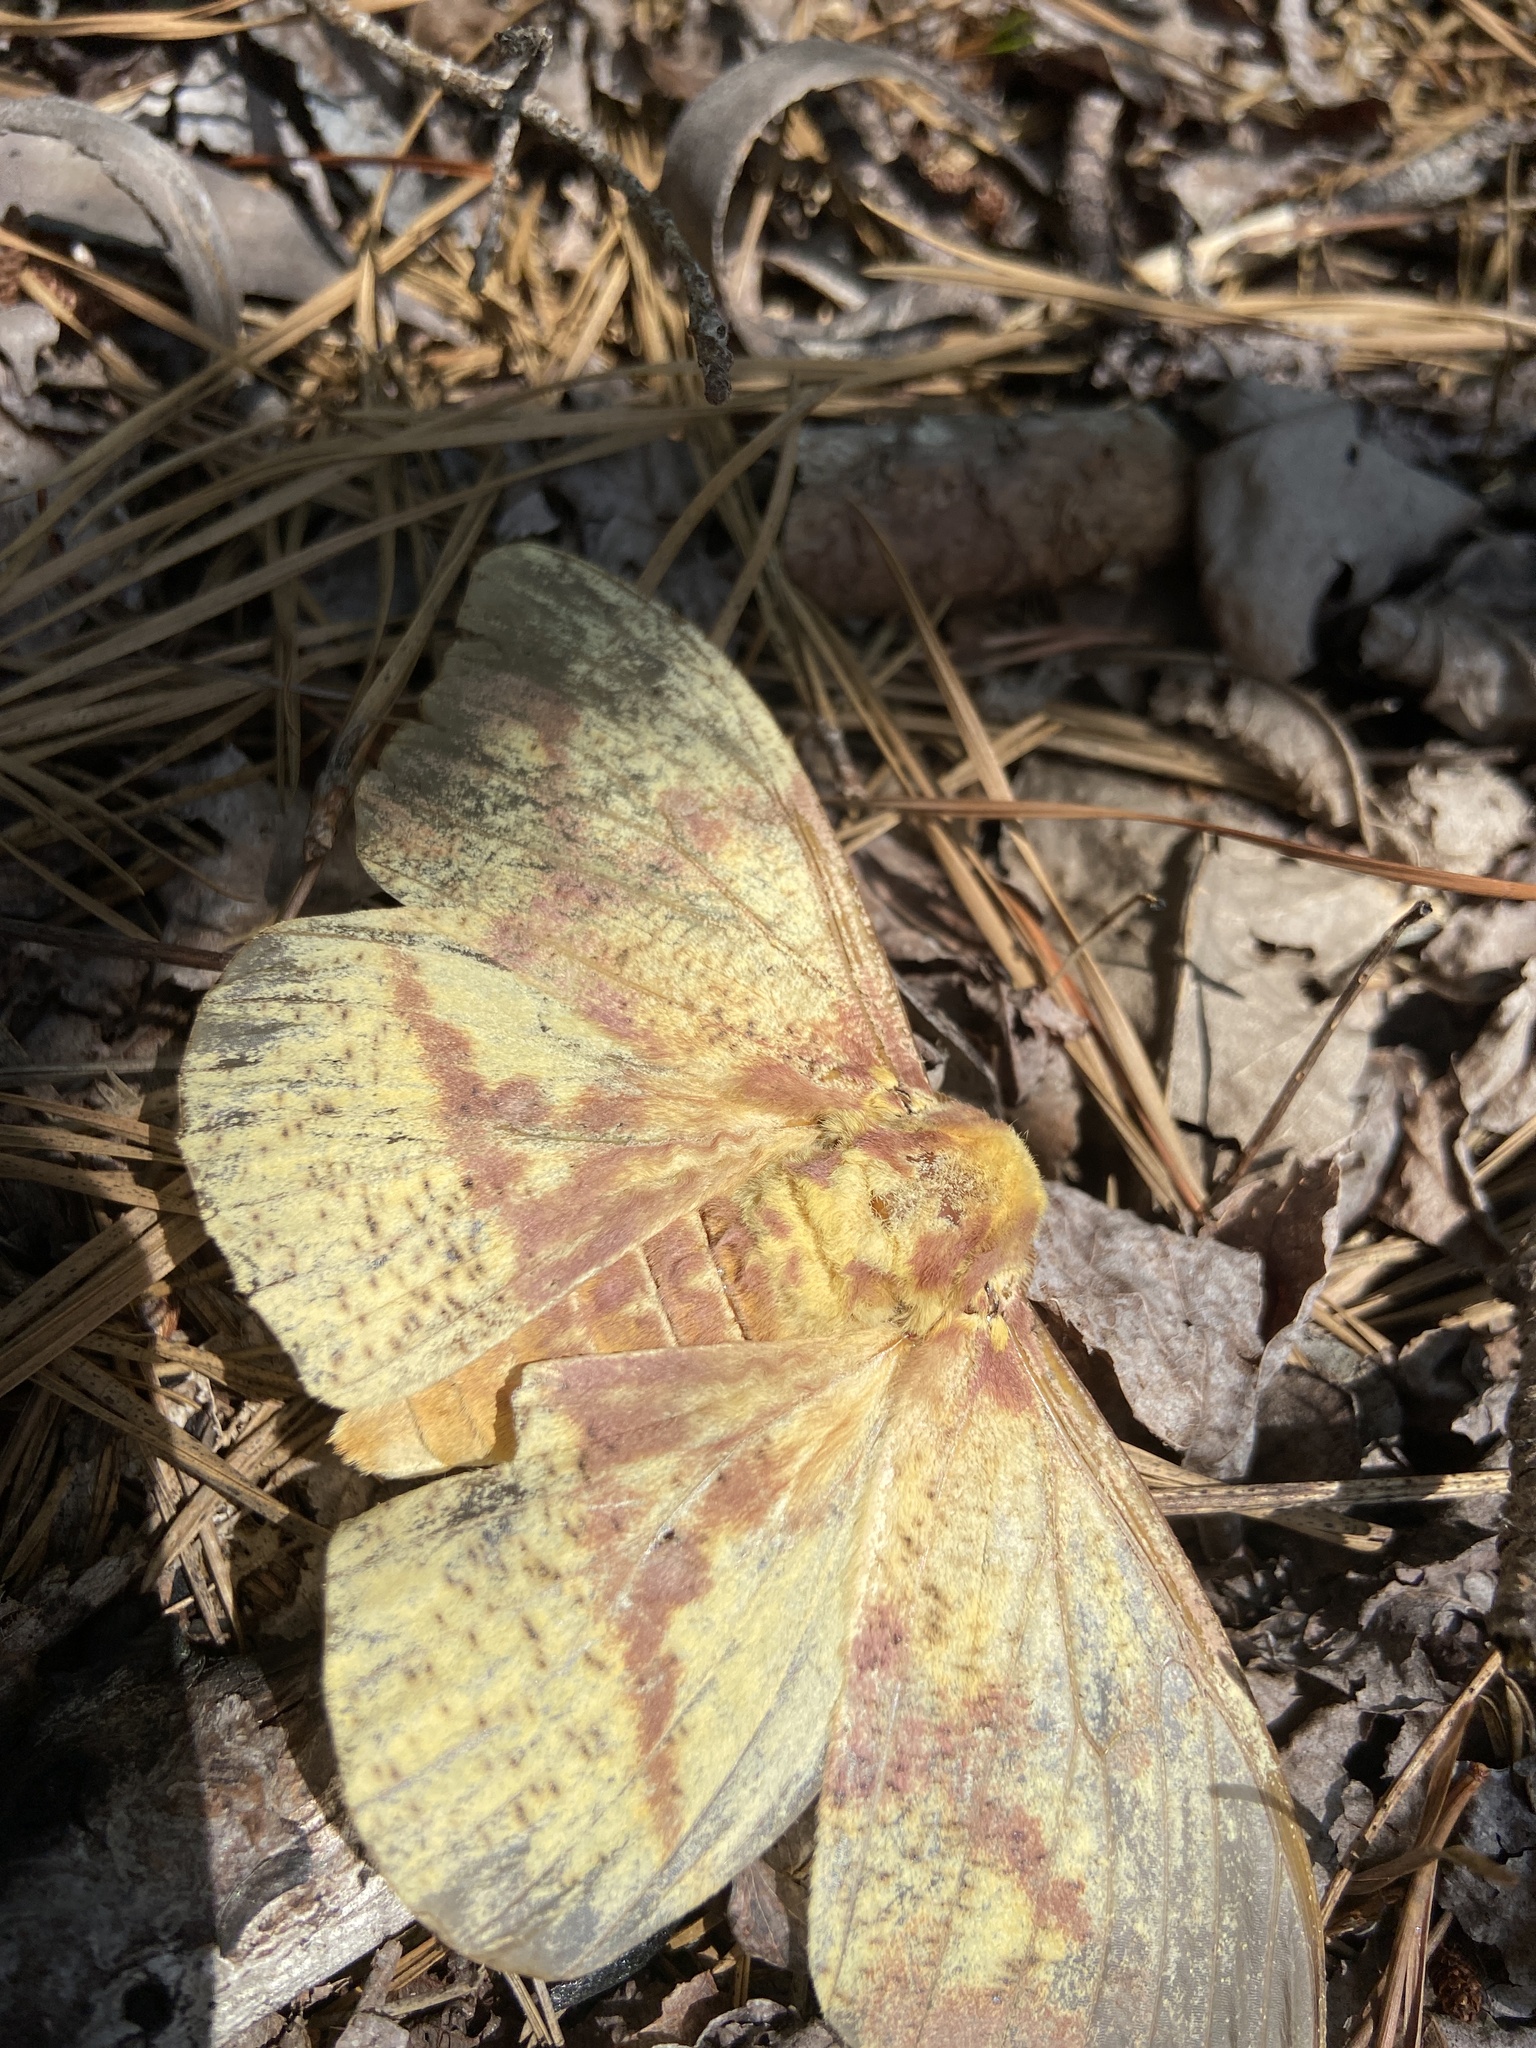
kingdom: Animalia
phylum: Arthropoda
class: Insecta
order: Lepidoptera
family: Saturniidae
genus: Eacles
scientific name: Eacles imperialis
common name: Imperial moth
